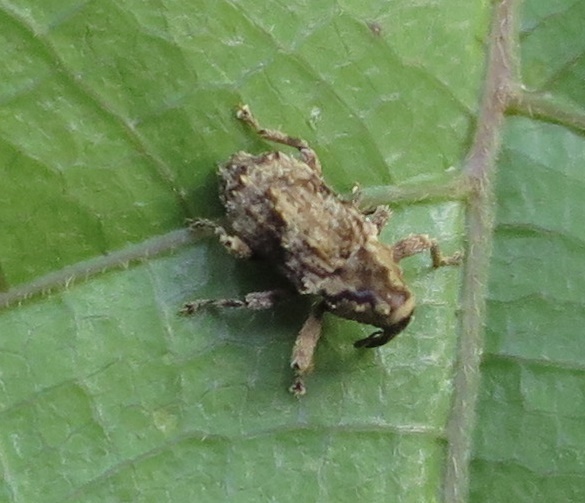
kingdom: Animalia
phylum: Arthropoda
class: Insecta
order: Coleoptera
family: Curculionidae
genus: Mecistostylus
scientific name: Mecistostylus douei
